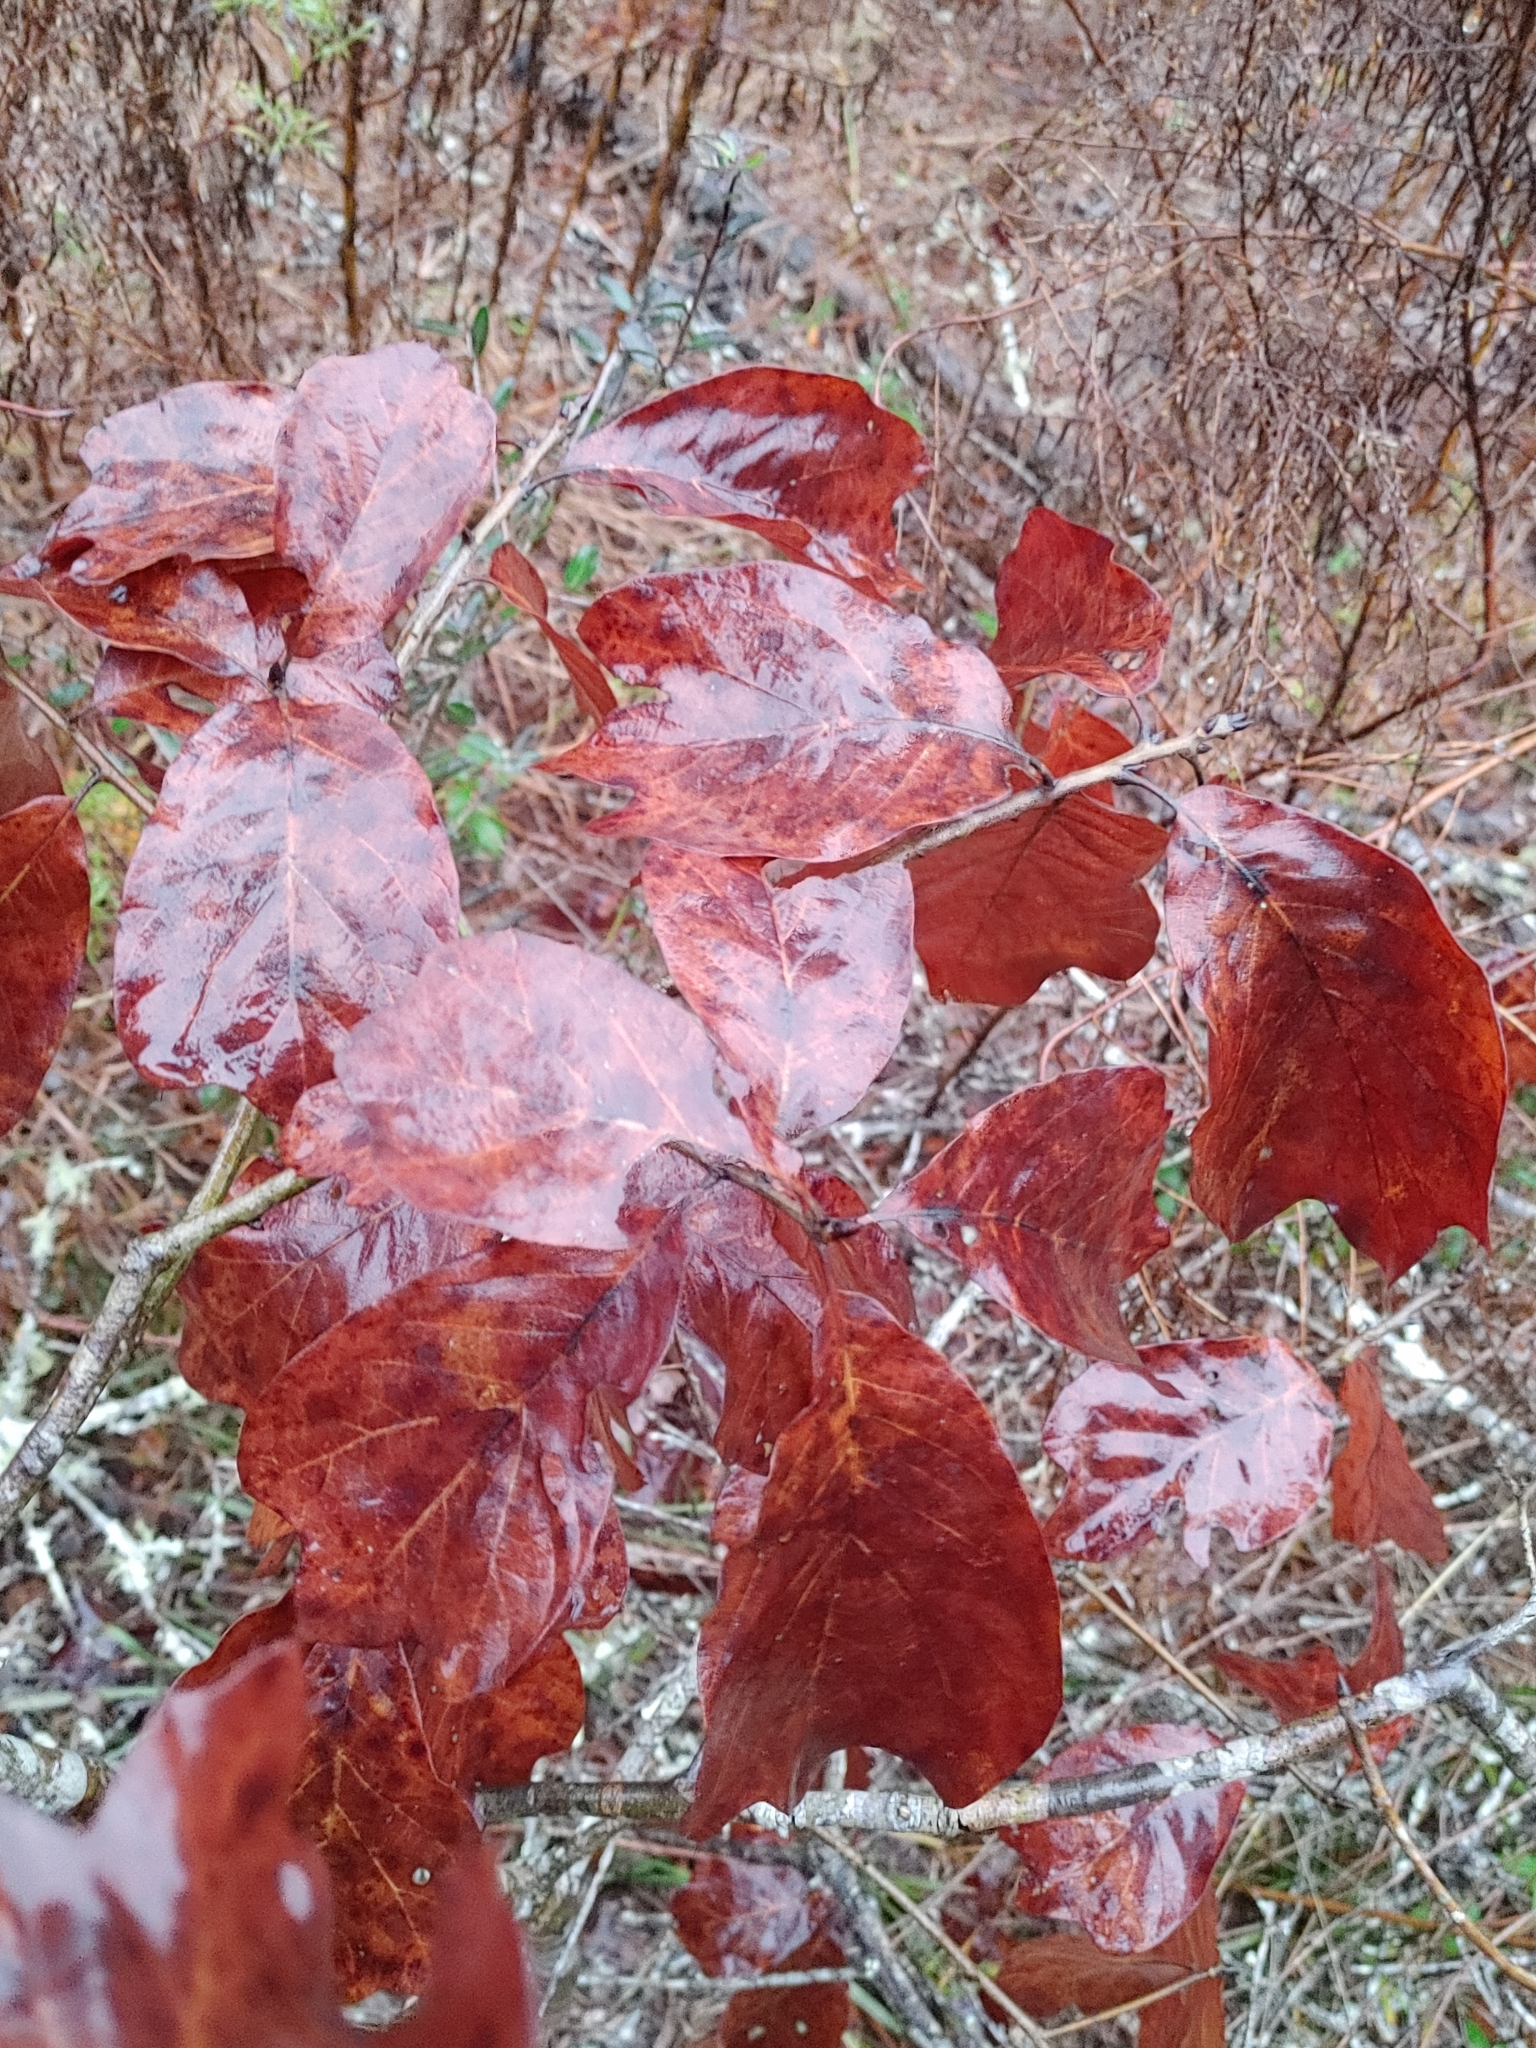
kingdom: Plantae
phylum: Tracheophyta
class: Magnoliopsida
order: Fagales
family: Fagaceae
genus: Quercus
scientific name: Quercus falcata
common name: Southern red oak
